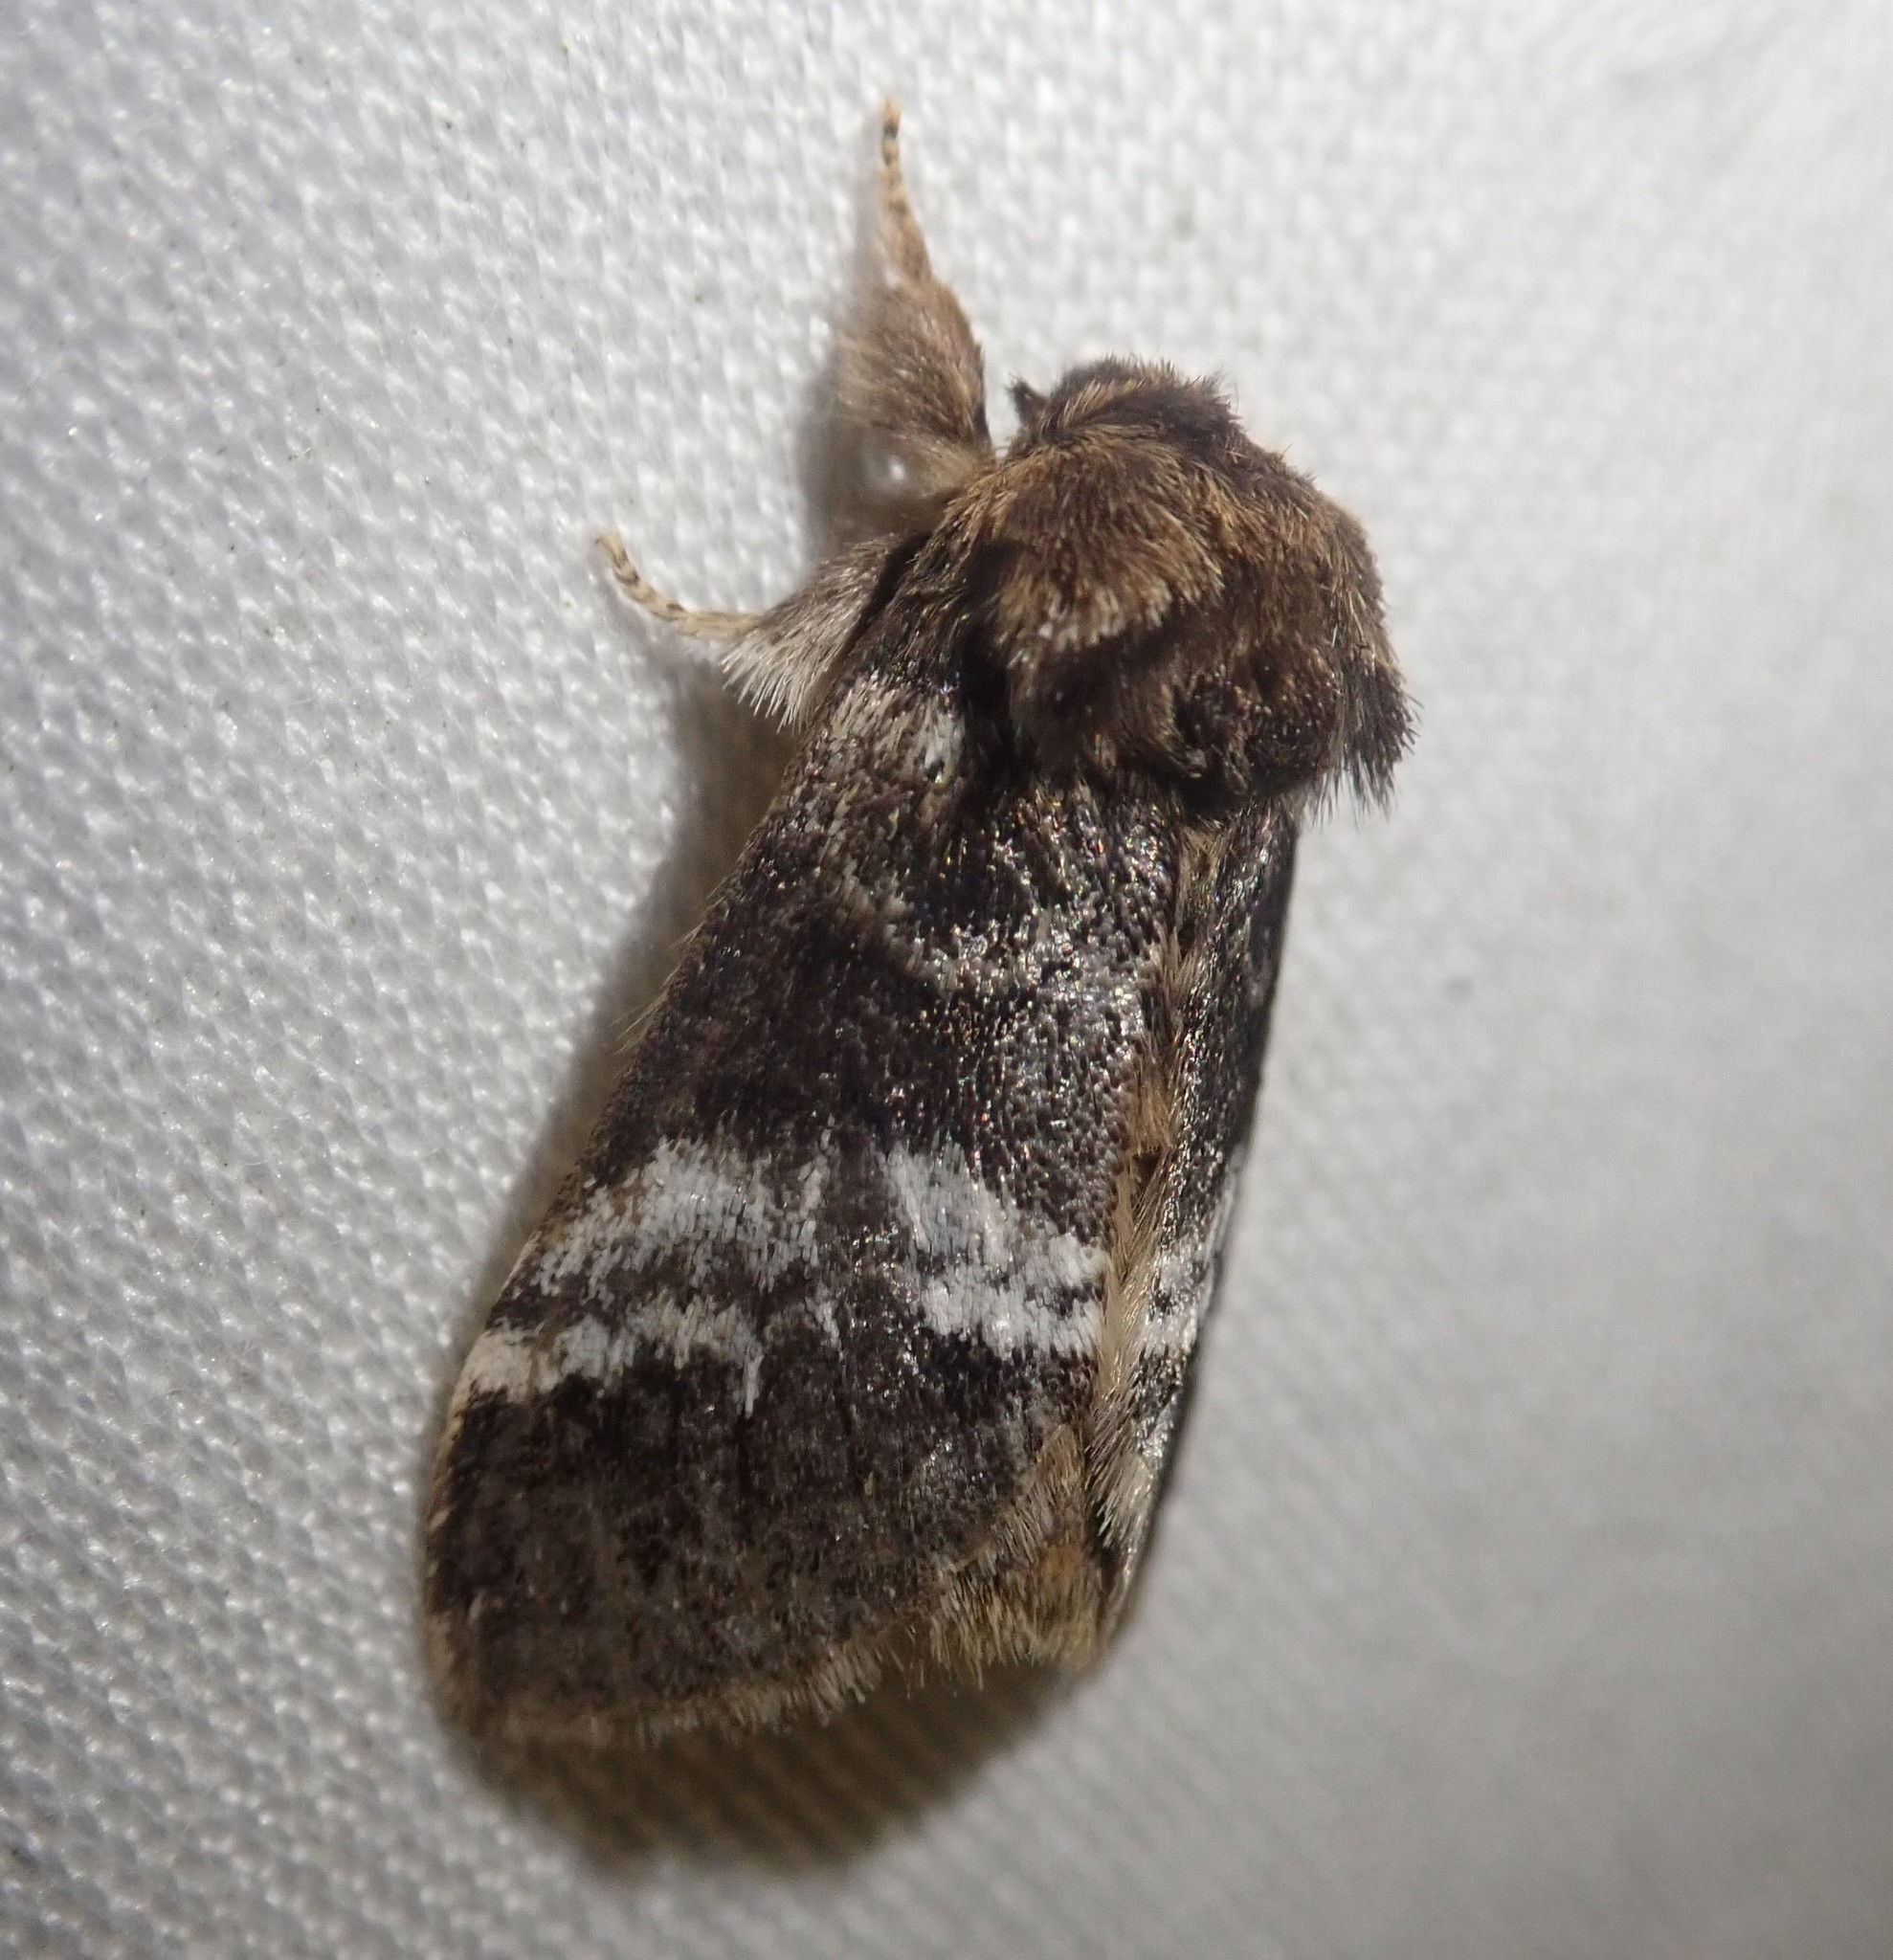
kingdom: Animalia
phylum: Arthropoda
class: Insecta
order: Lepidoptera
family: Notodontidae
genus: Drymonia
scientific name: Drymonia dodonaea
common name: Marbled brown
